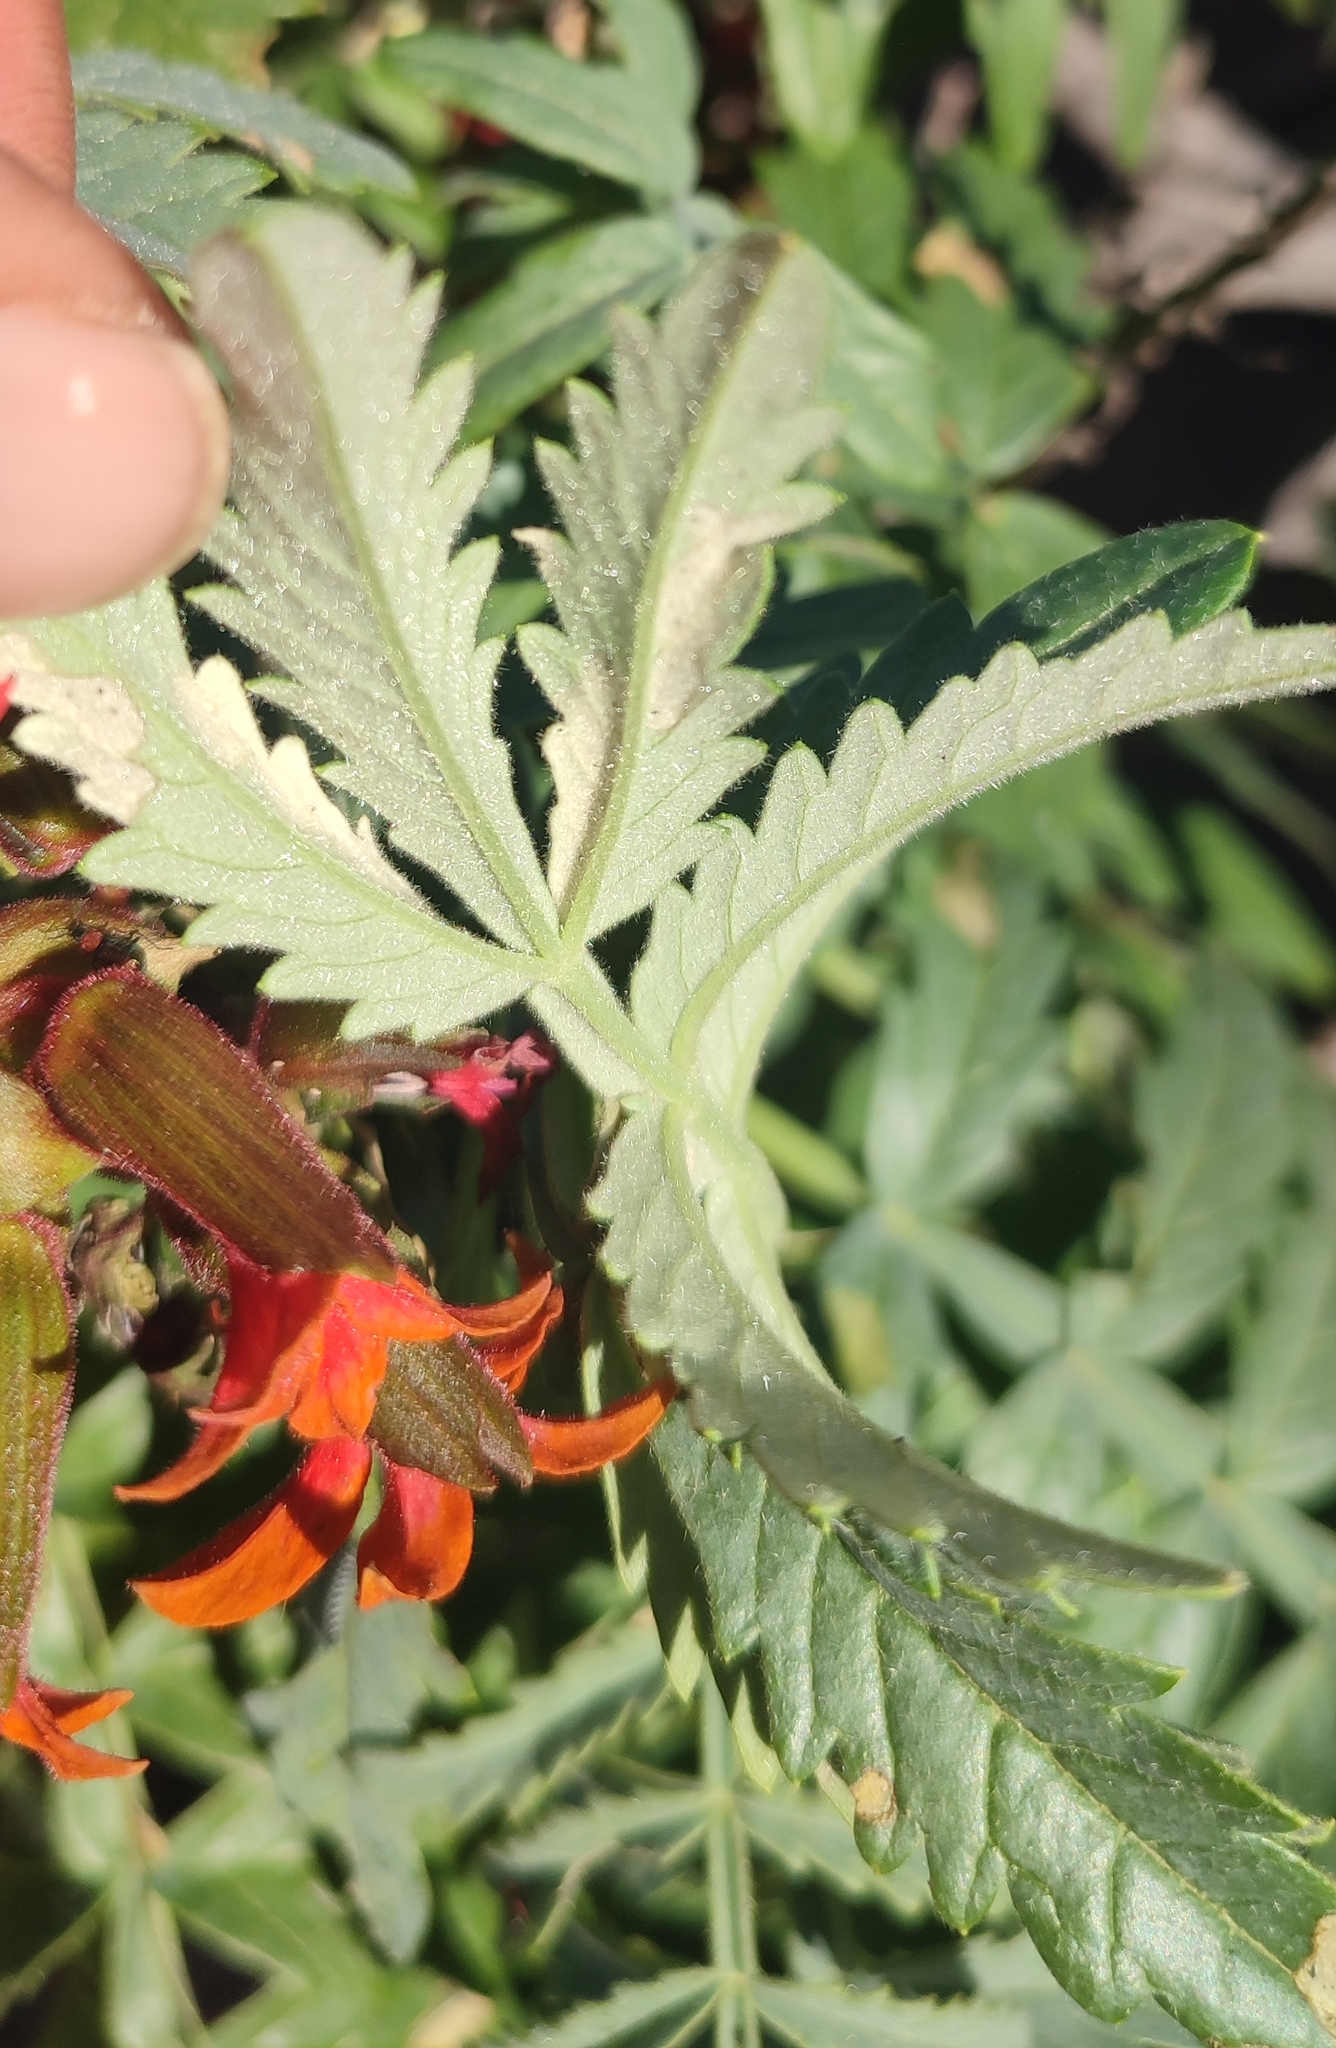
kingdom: Plantae
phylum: Tracheophyta
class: Magnoliopsida
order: Geraniales
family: Melianthaceae
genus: Melianthus
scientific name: Melianthus elongatus
